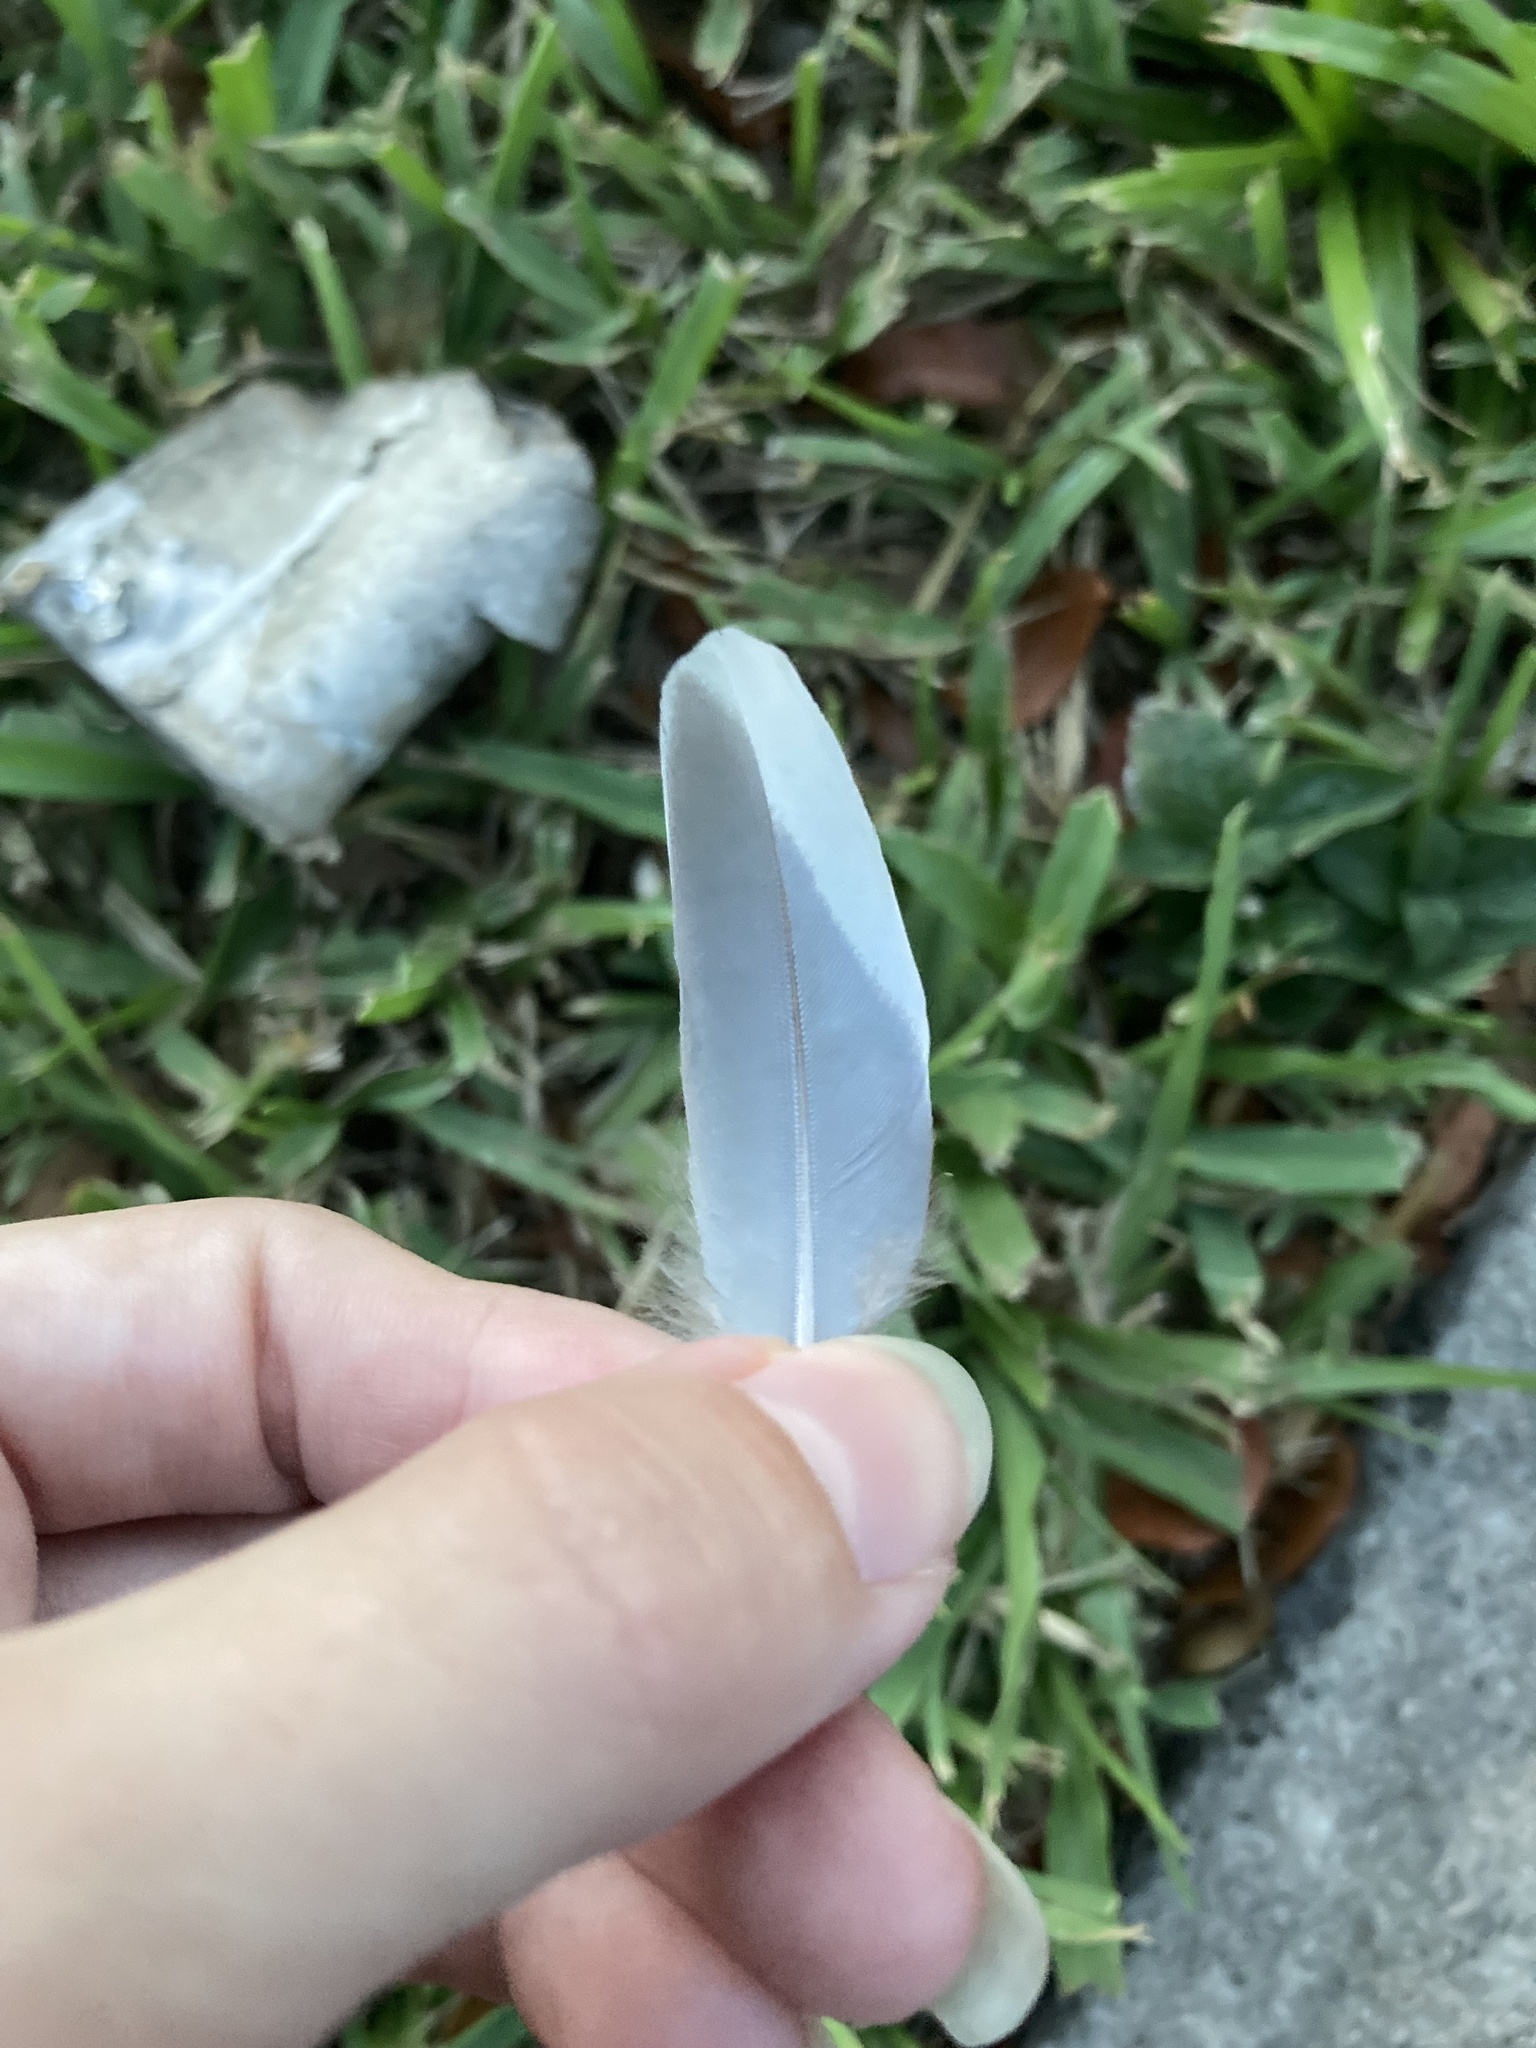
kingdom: Animalia
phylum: Chordata
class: Aves
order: Columbiformes
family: Columbidae
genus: Zenaida
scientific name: Zenaida asiatica
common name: White-winged dove
